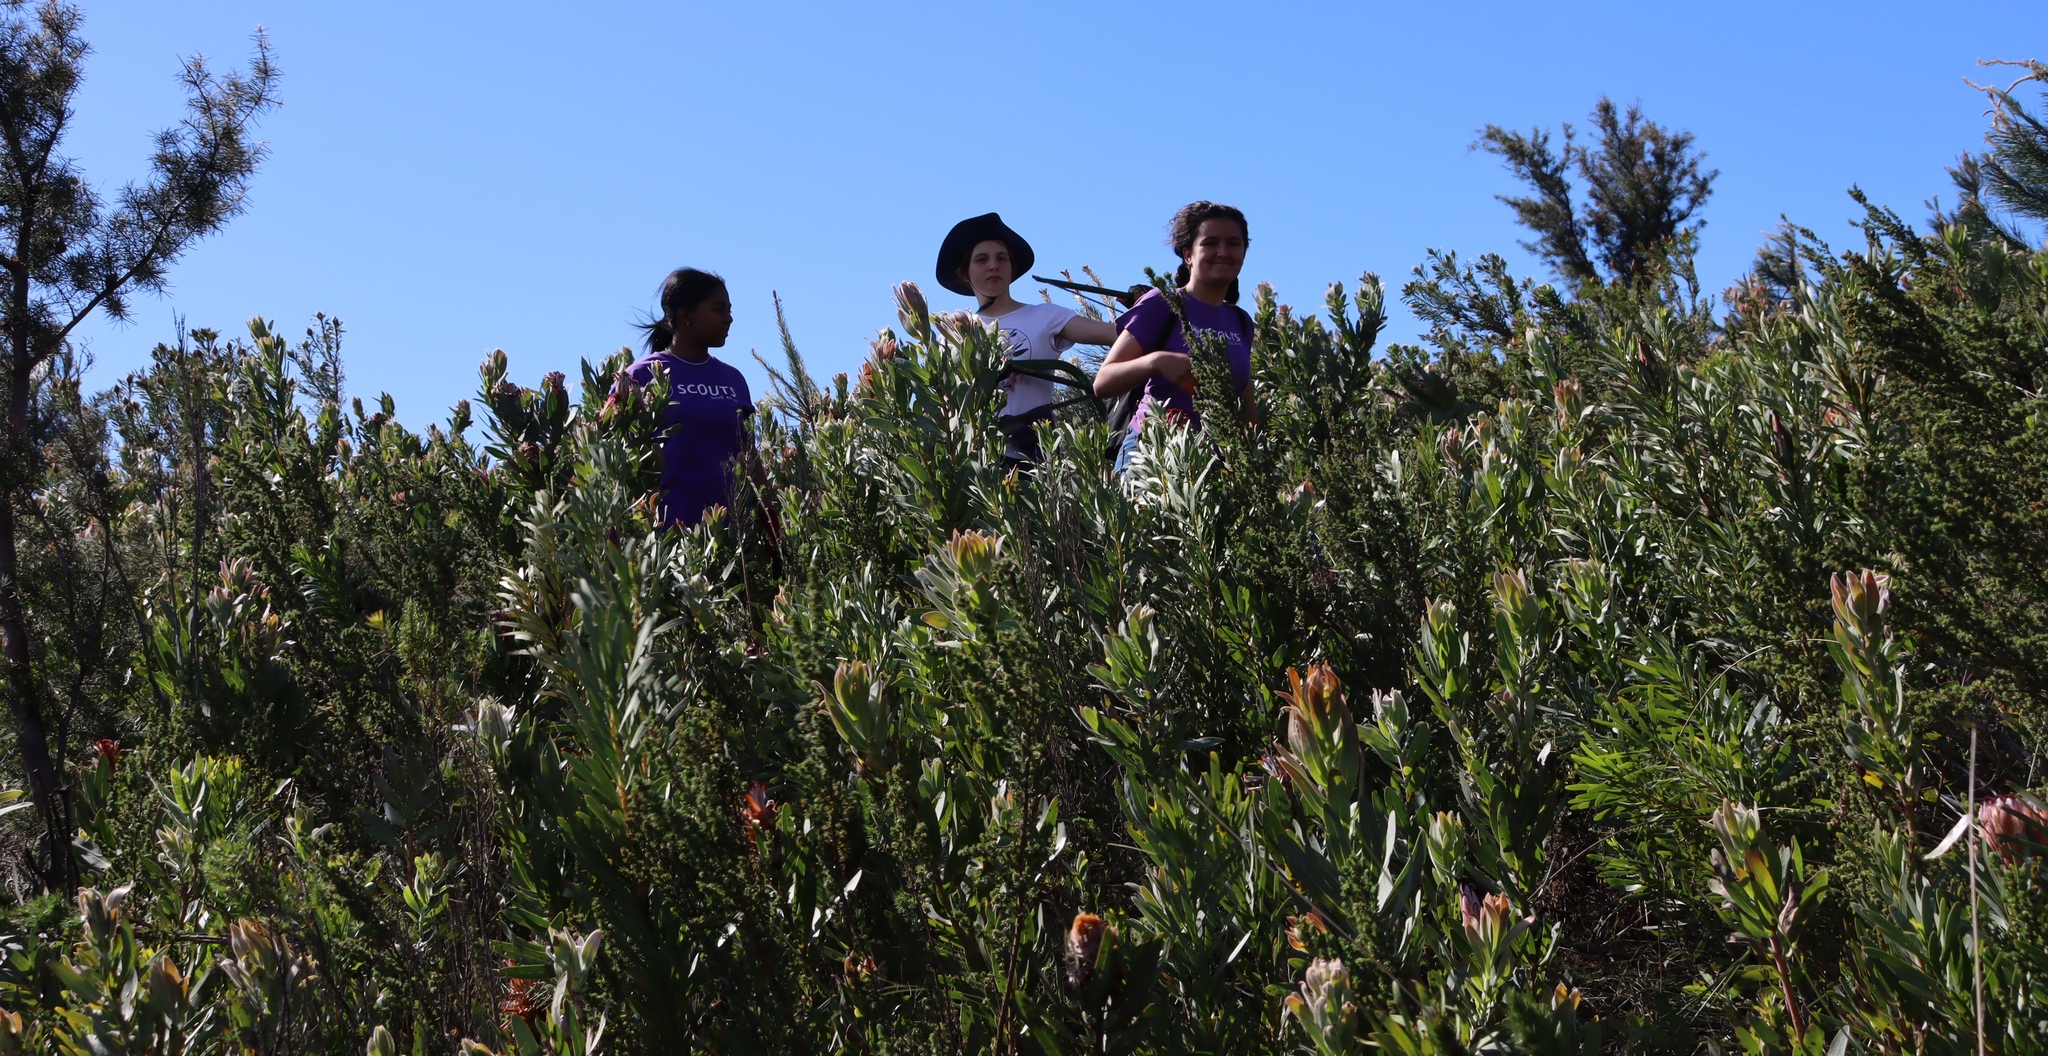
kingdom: Plantae
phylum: Tracheophyta
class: Magnoliopsida
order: Proteales
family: Proteaceae
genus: Protea
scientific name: Protea laurifolia
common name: Grey-leaf sugarbsh
